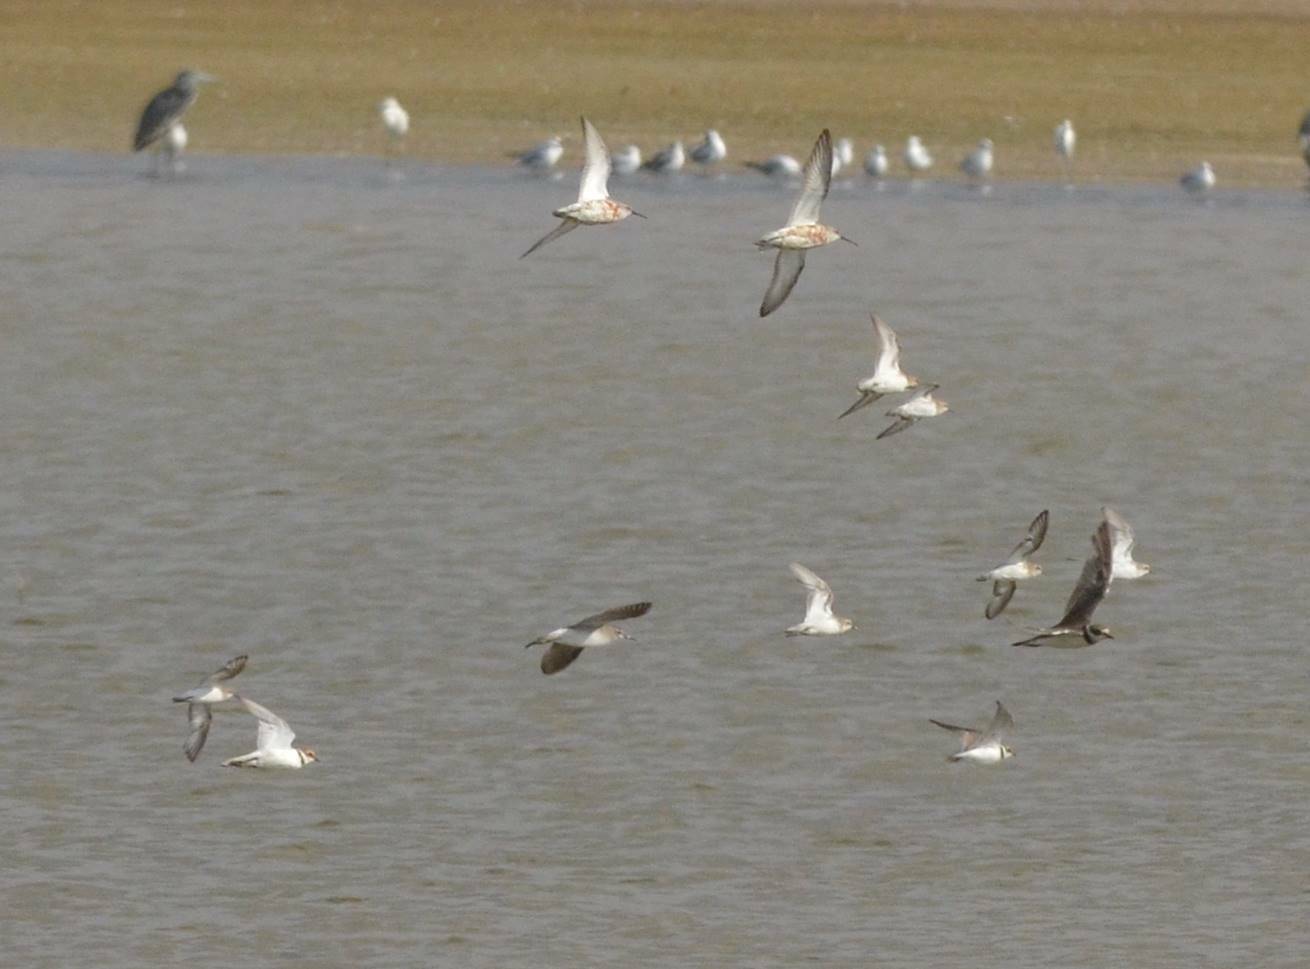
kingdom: Animalia
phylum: Chordata
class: Aves
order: Charadriiformes
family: Scolopacidae
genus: Calidris
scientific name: Calidris ferruginea
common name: Curlew sandpiper
